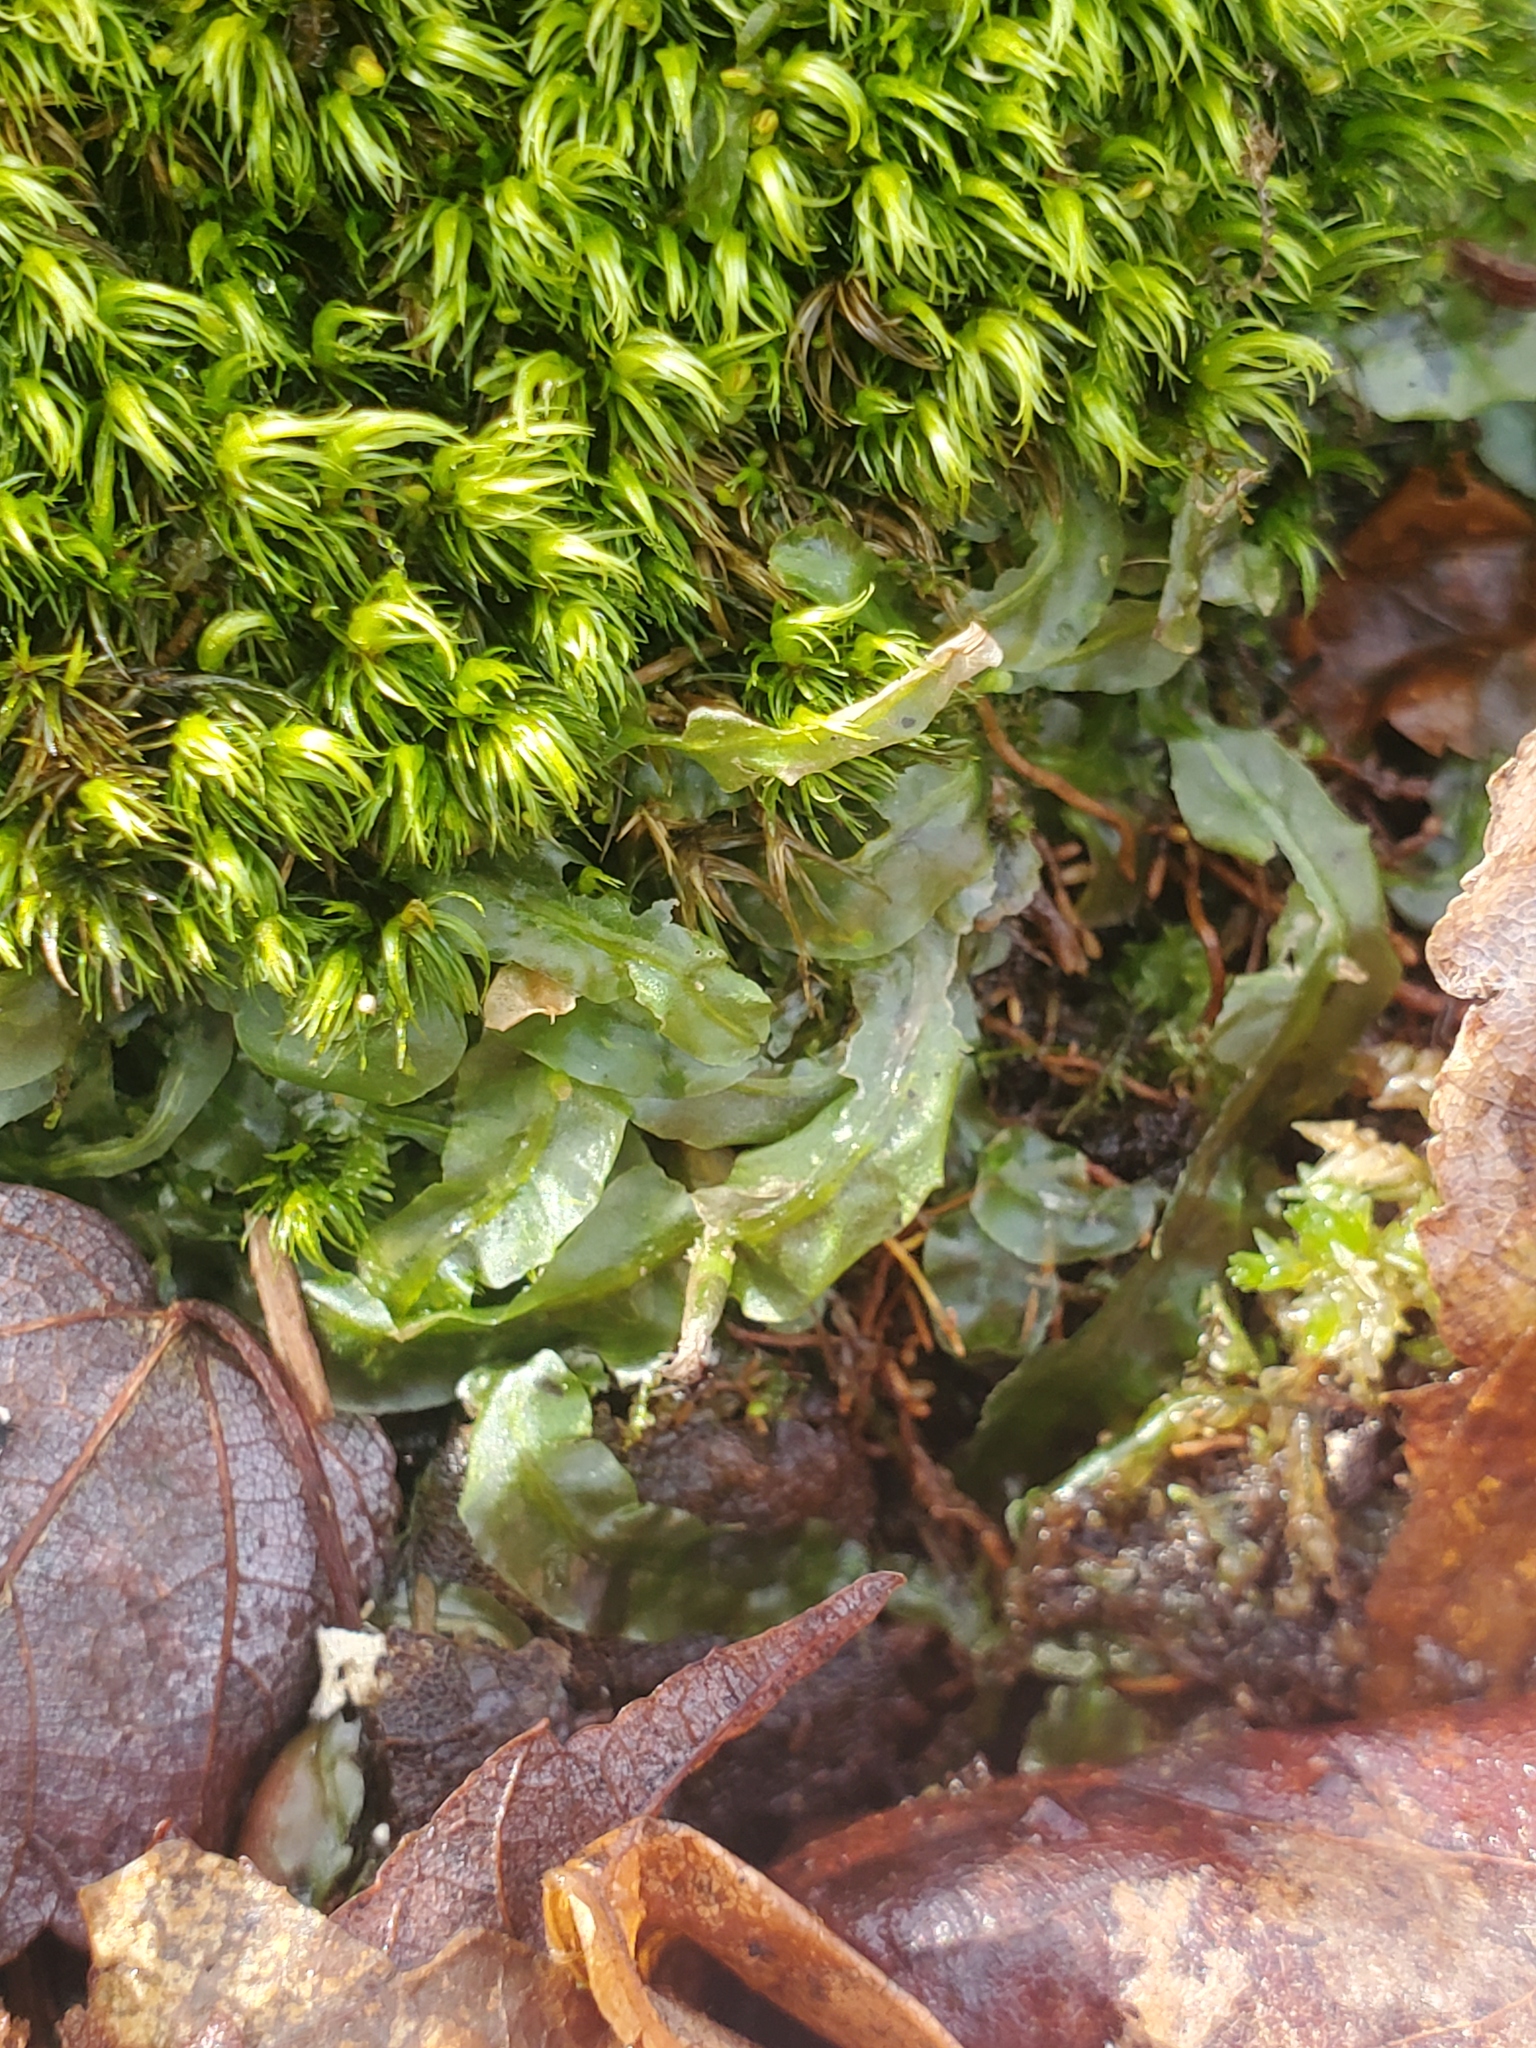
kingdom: Plantae
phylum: Marchantiophyta
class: Jungermanniopsida
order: Pallaviciniales
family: Pallaviciniaceae
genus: Pallavicinia
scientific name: Pallavicinia lyellii
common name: Veilwort
